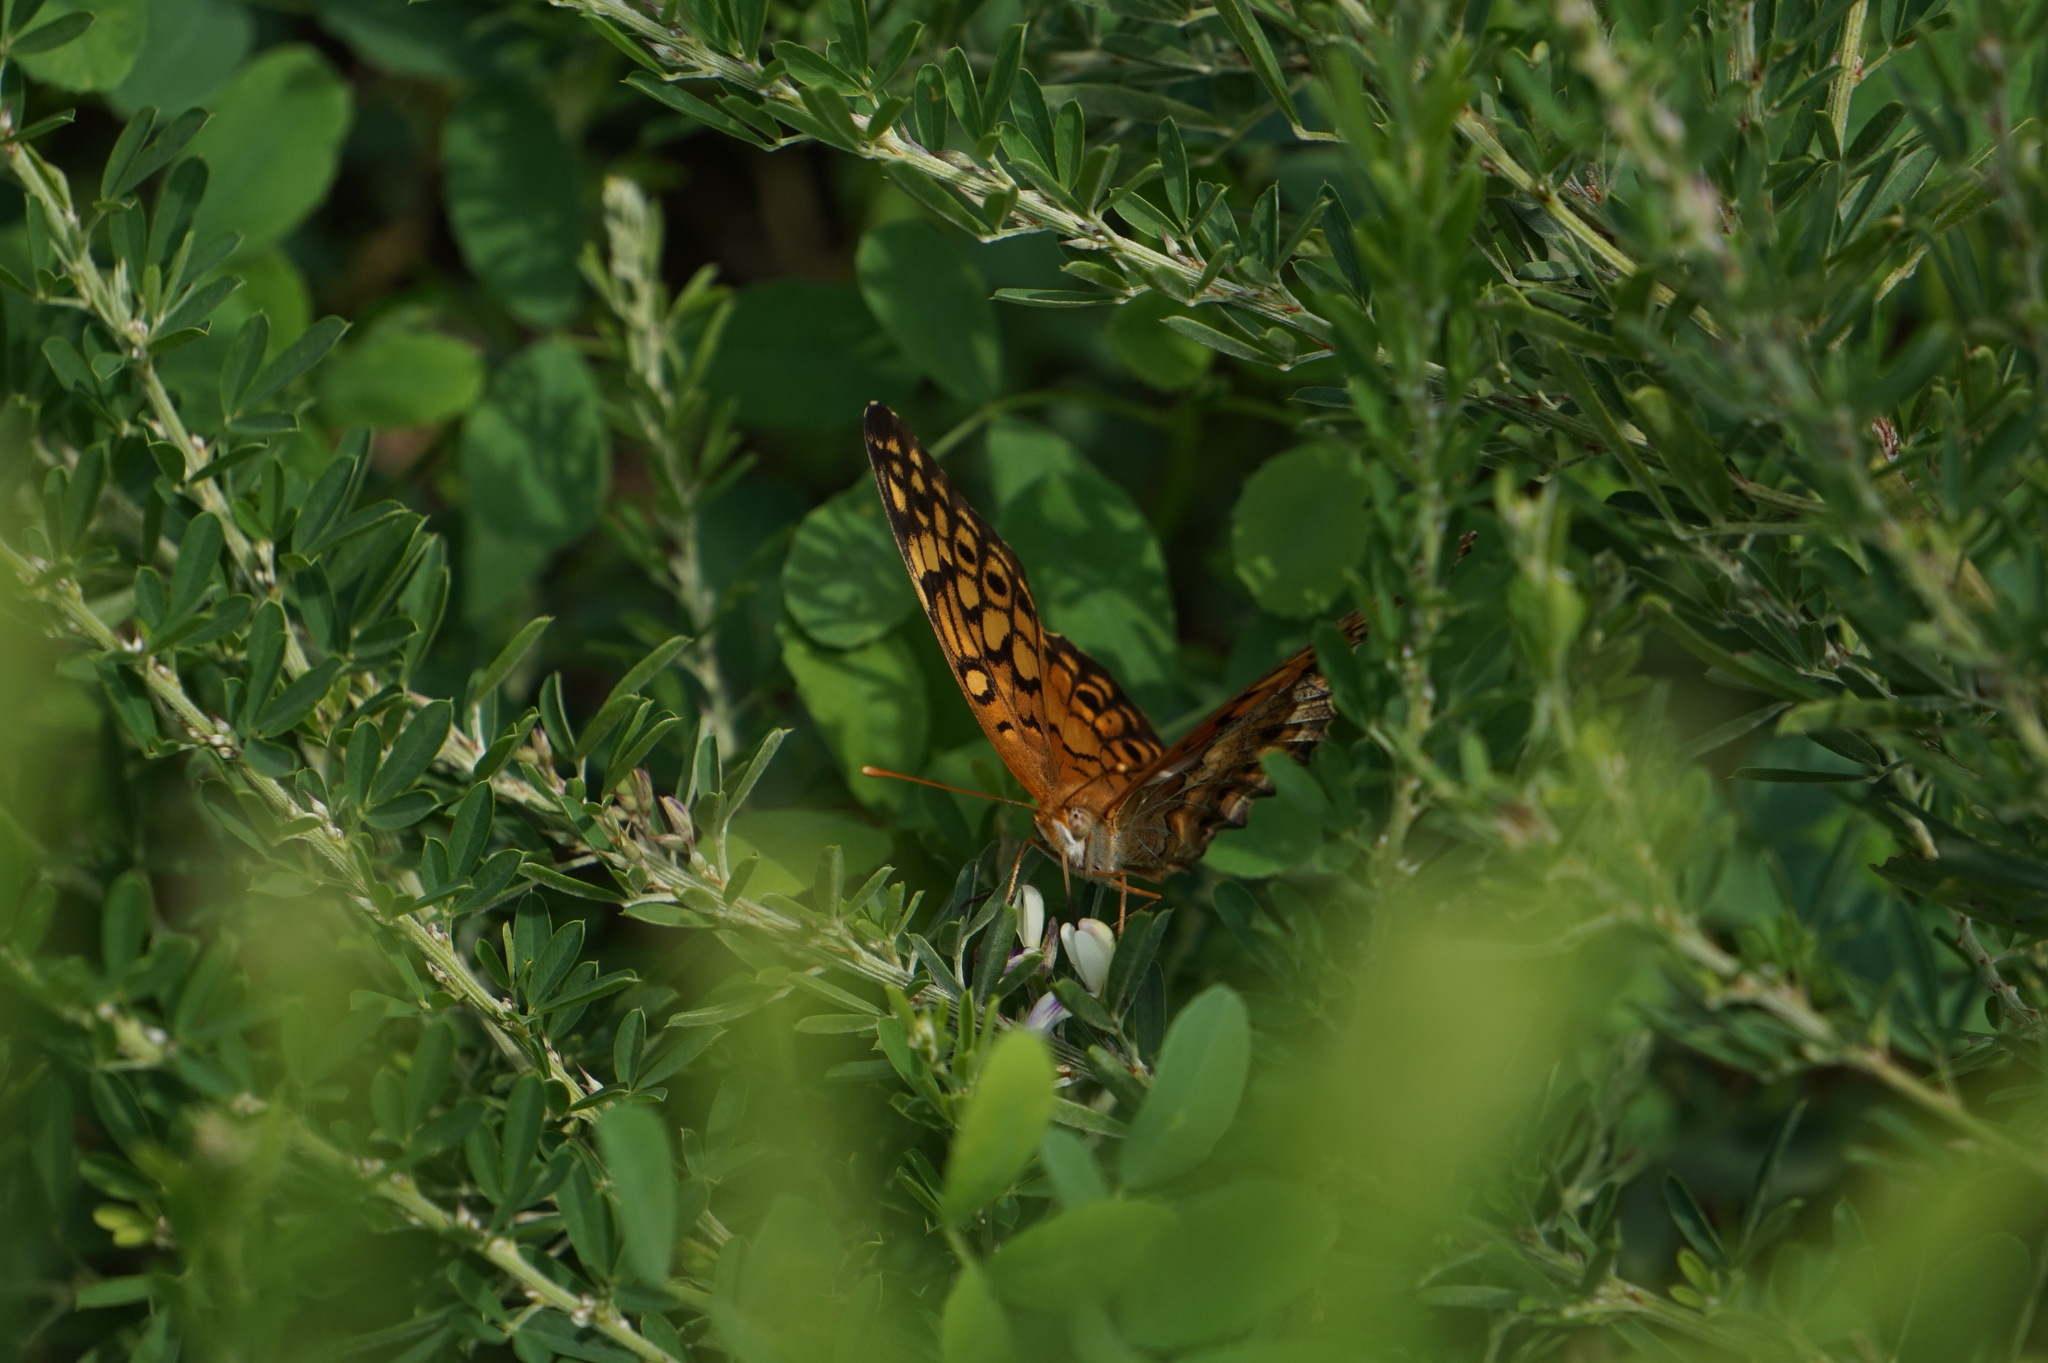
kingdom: Animalia
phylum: Arthropoda
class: Insecta
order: Lepidoptera
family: Nymphalidae
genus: Euptoieta
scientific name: Euptoieta claudia
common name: Variegated fritillary
